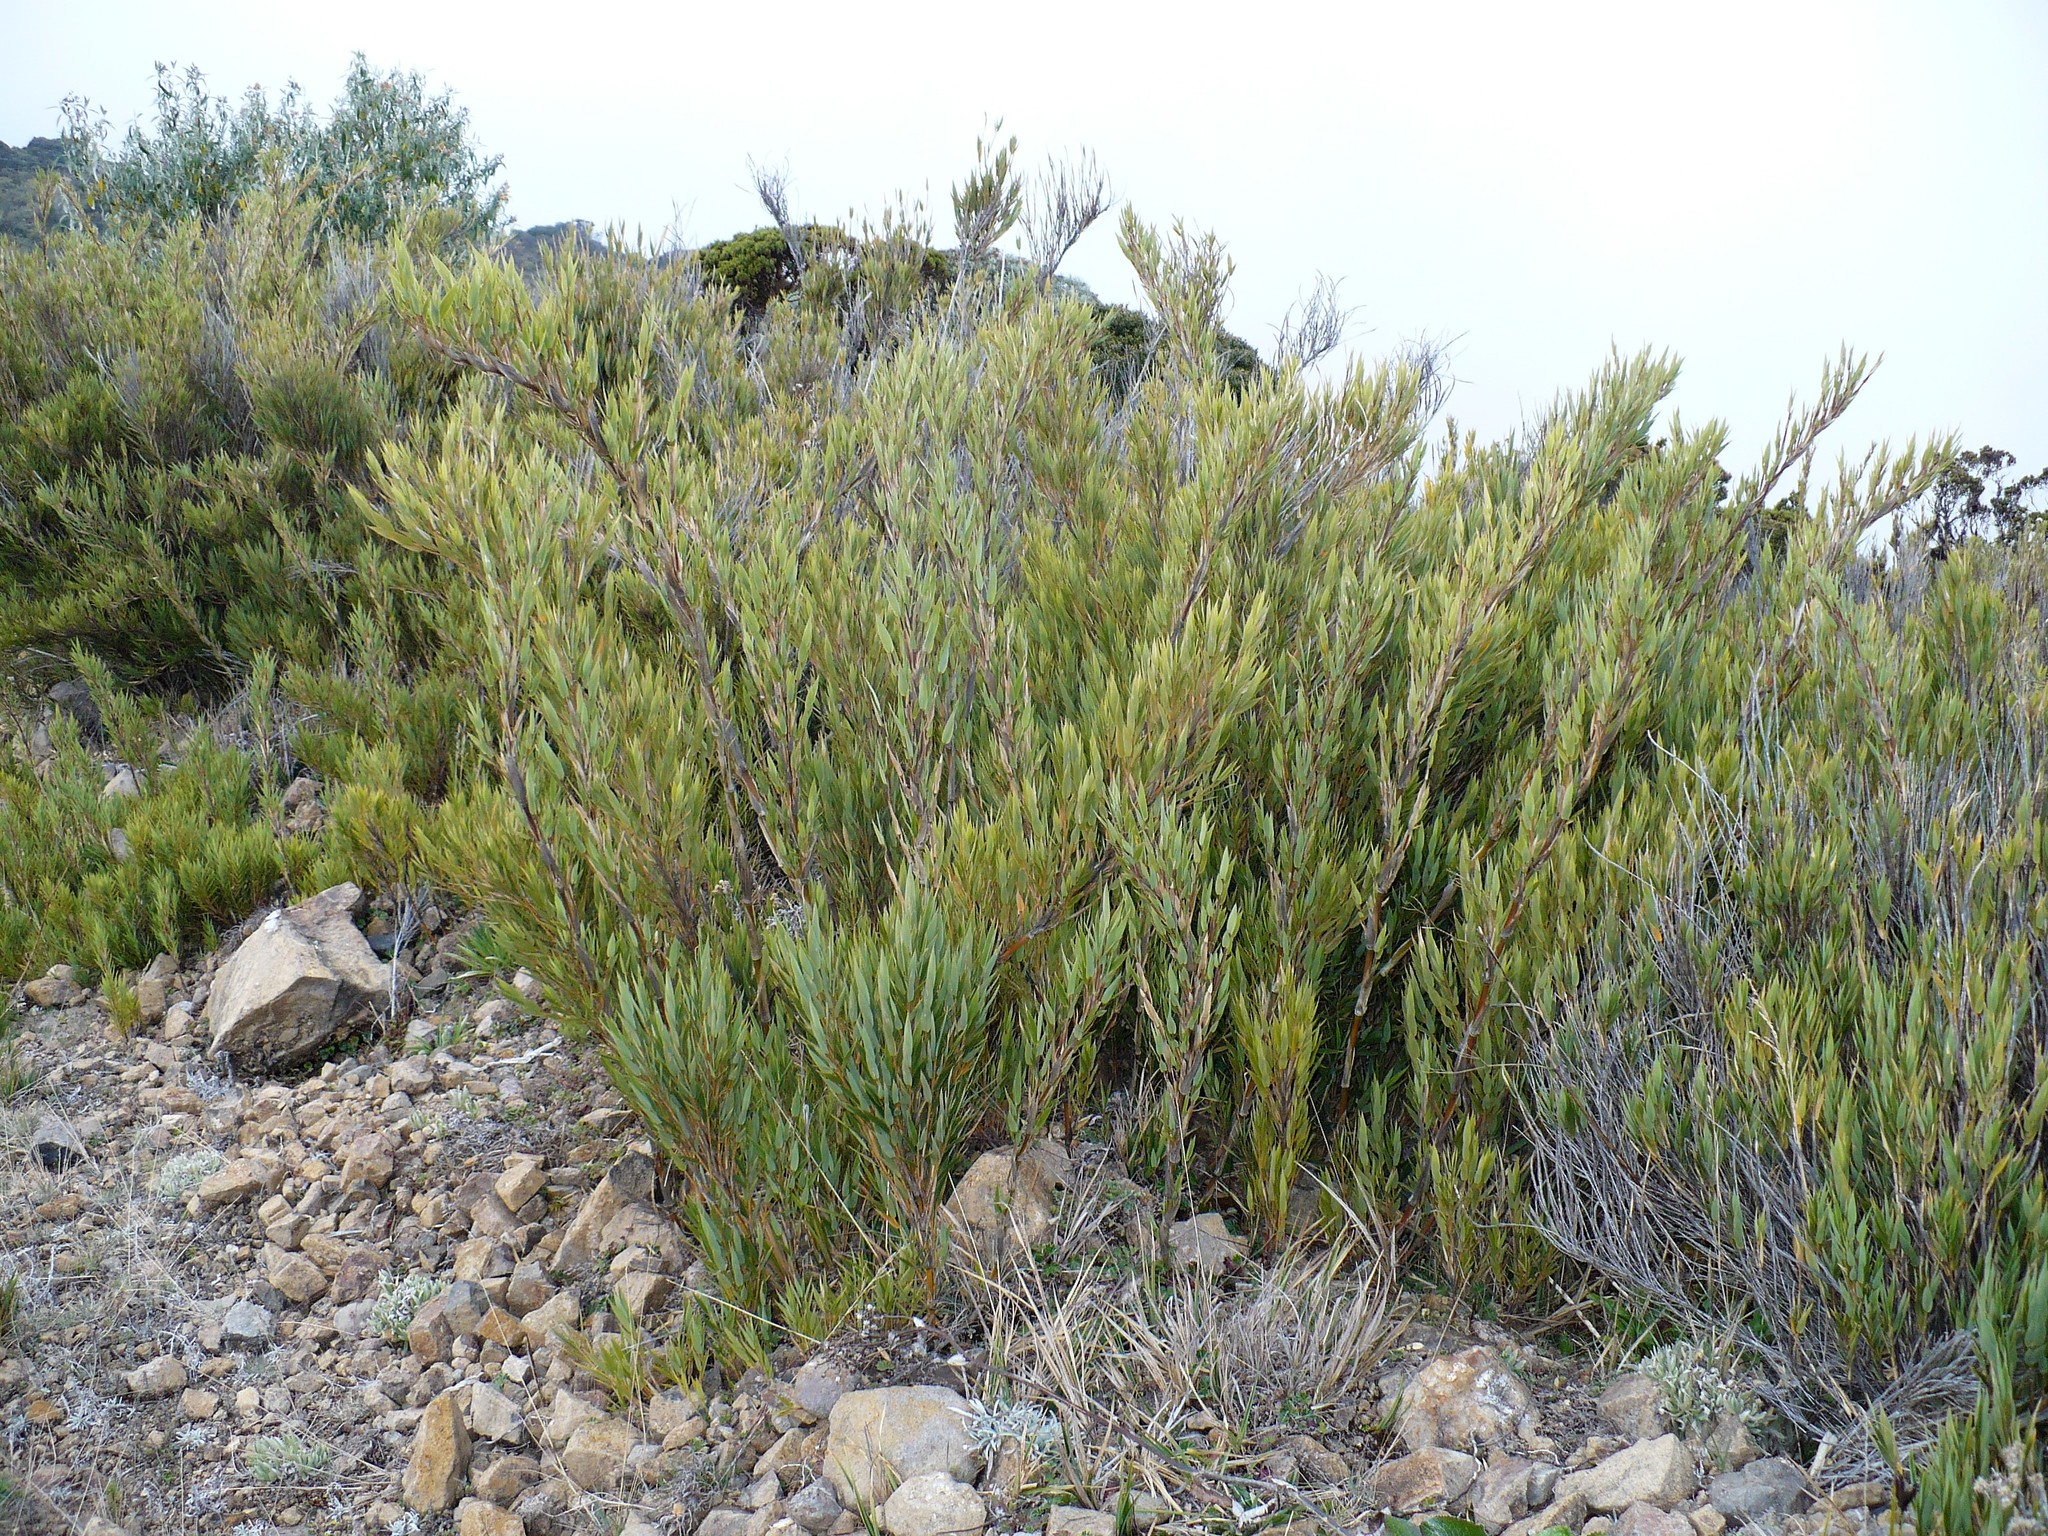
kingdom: Plantae
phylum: Tracheophyta
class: Liliopsida
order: Poales
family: Poaceae
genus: Chusquea
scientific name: Chusquea subtessellata
